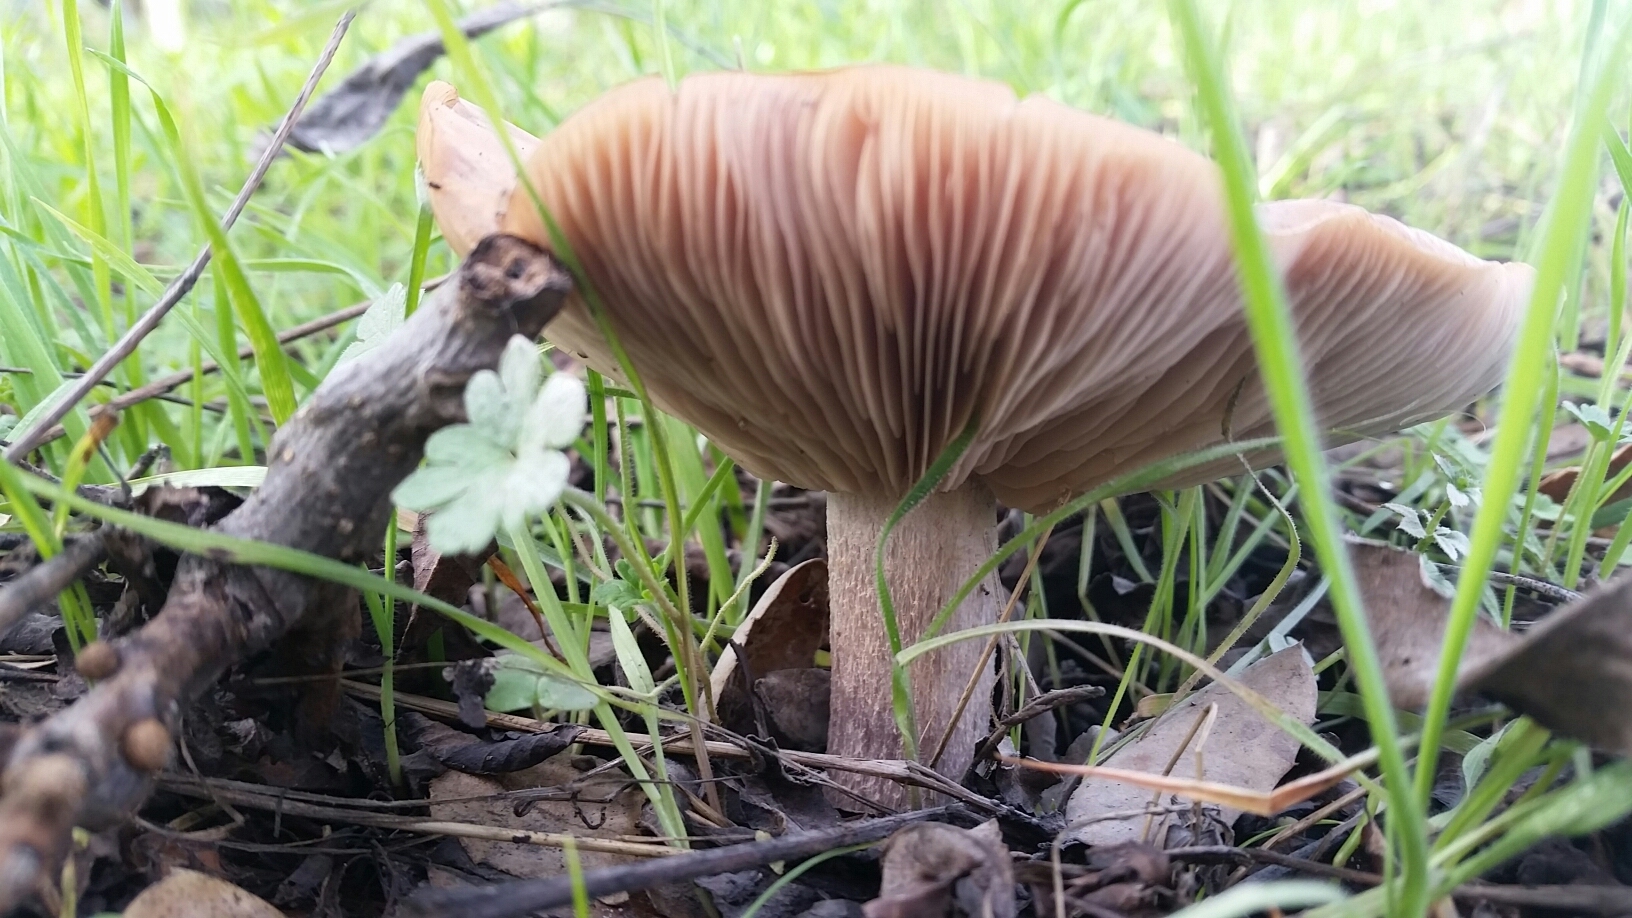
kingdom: Fungi
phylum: Basidiomycota
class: Agaricomycetes
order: Agaricales
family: Tricholomataceae
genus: Collybia
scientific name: Collybia
